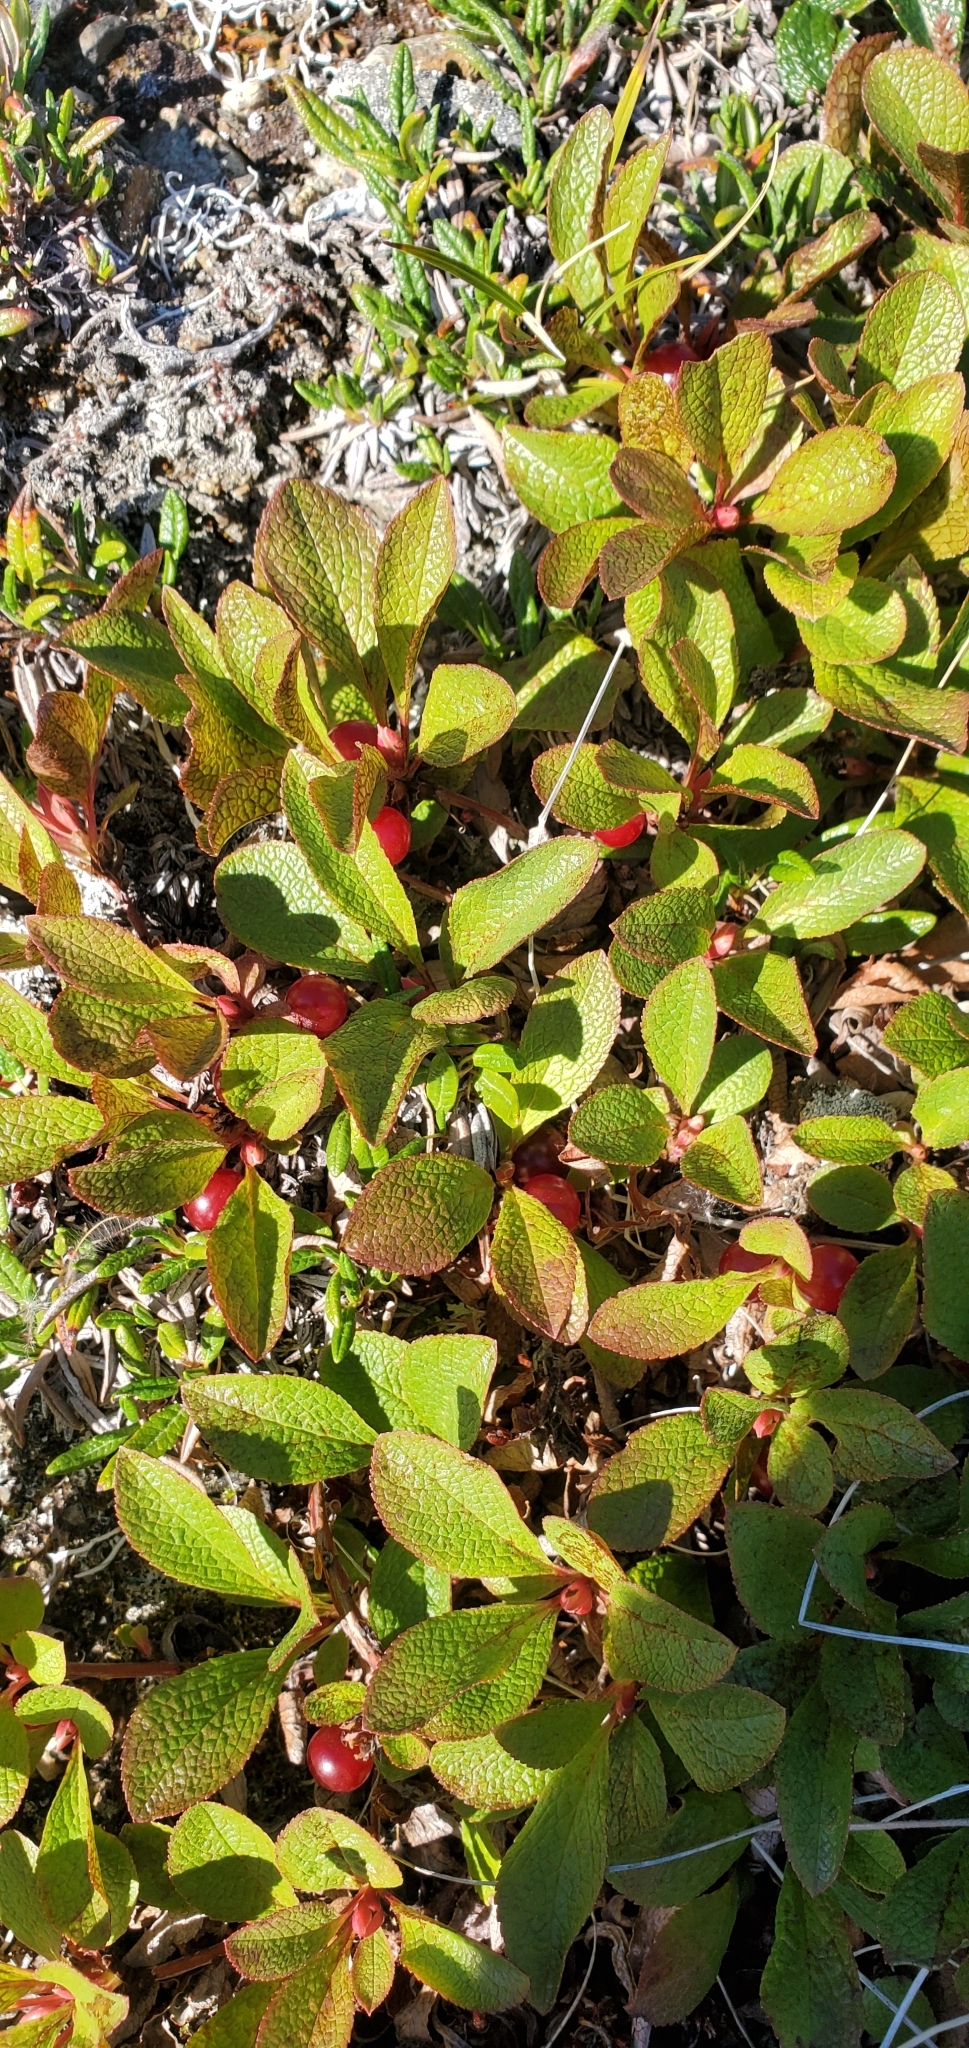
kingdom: Plantae
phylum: Tracheophyta
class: Magnoliopsida
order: Ericales
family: Ericaceae
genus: Arctostaphylos
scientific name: Arctostaphylos rubra
